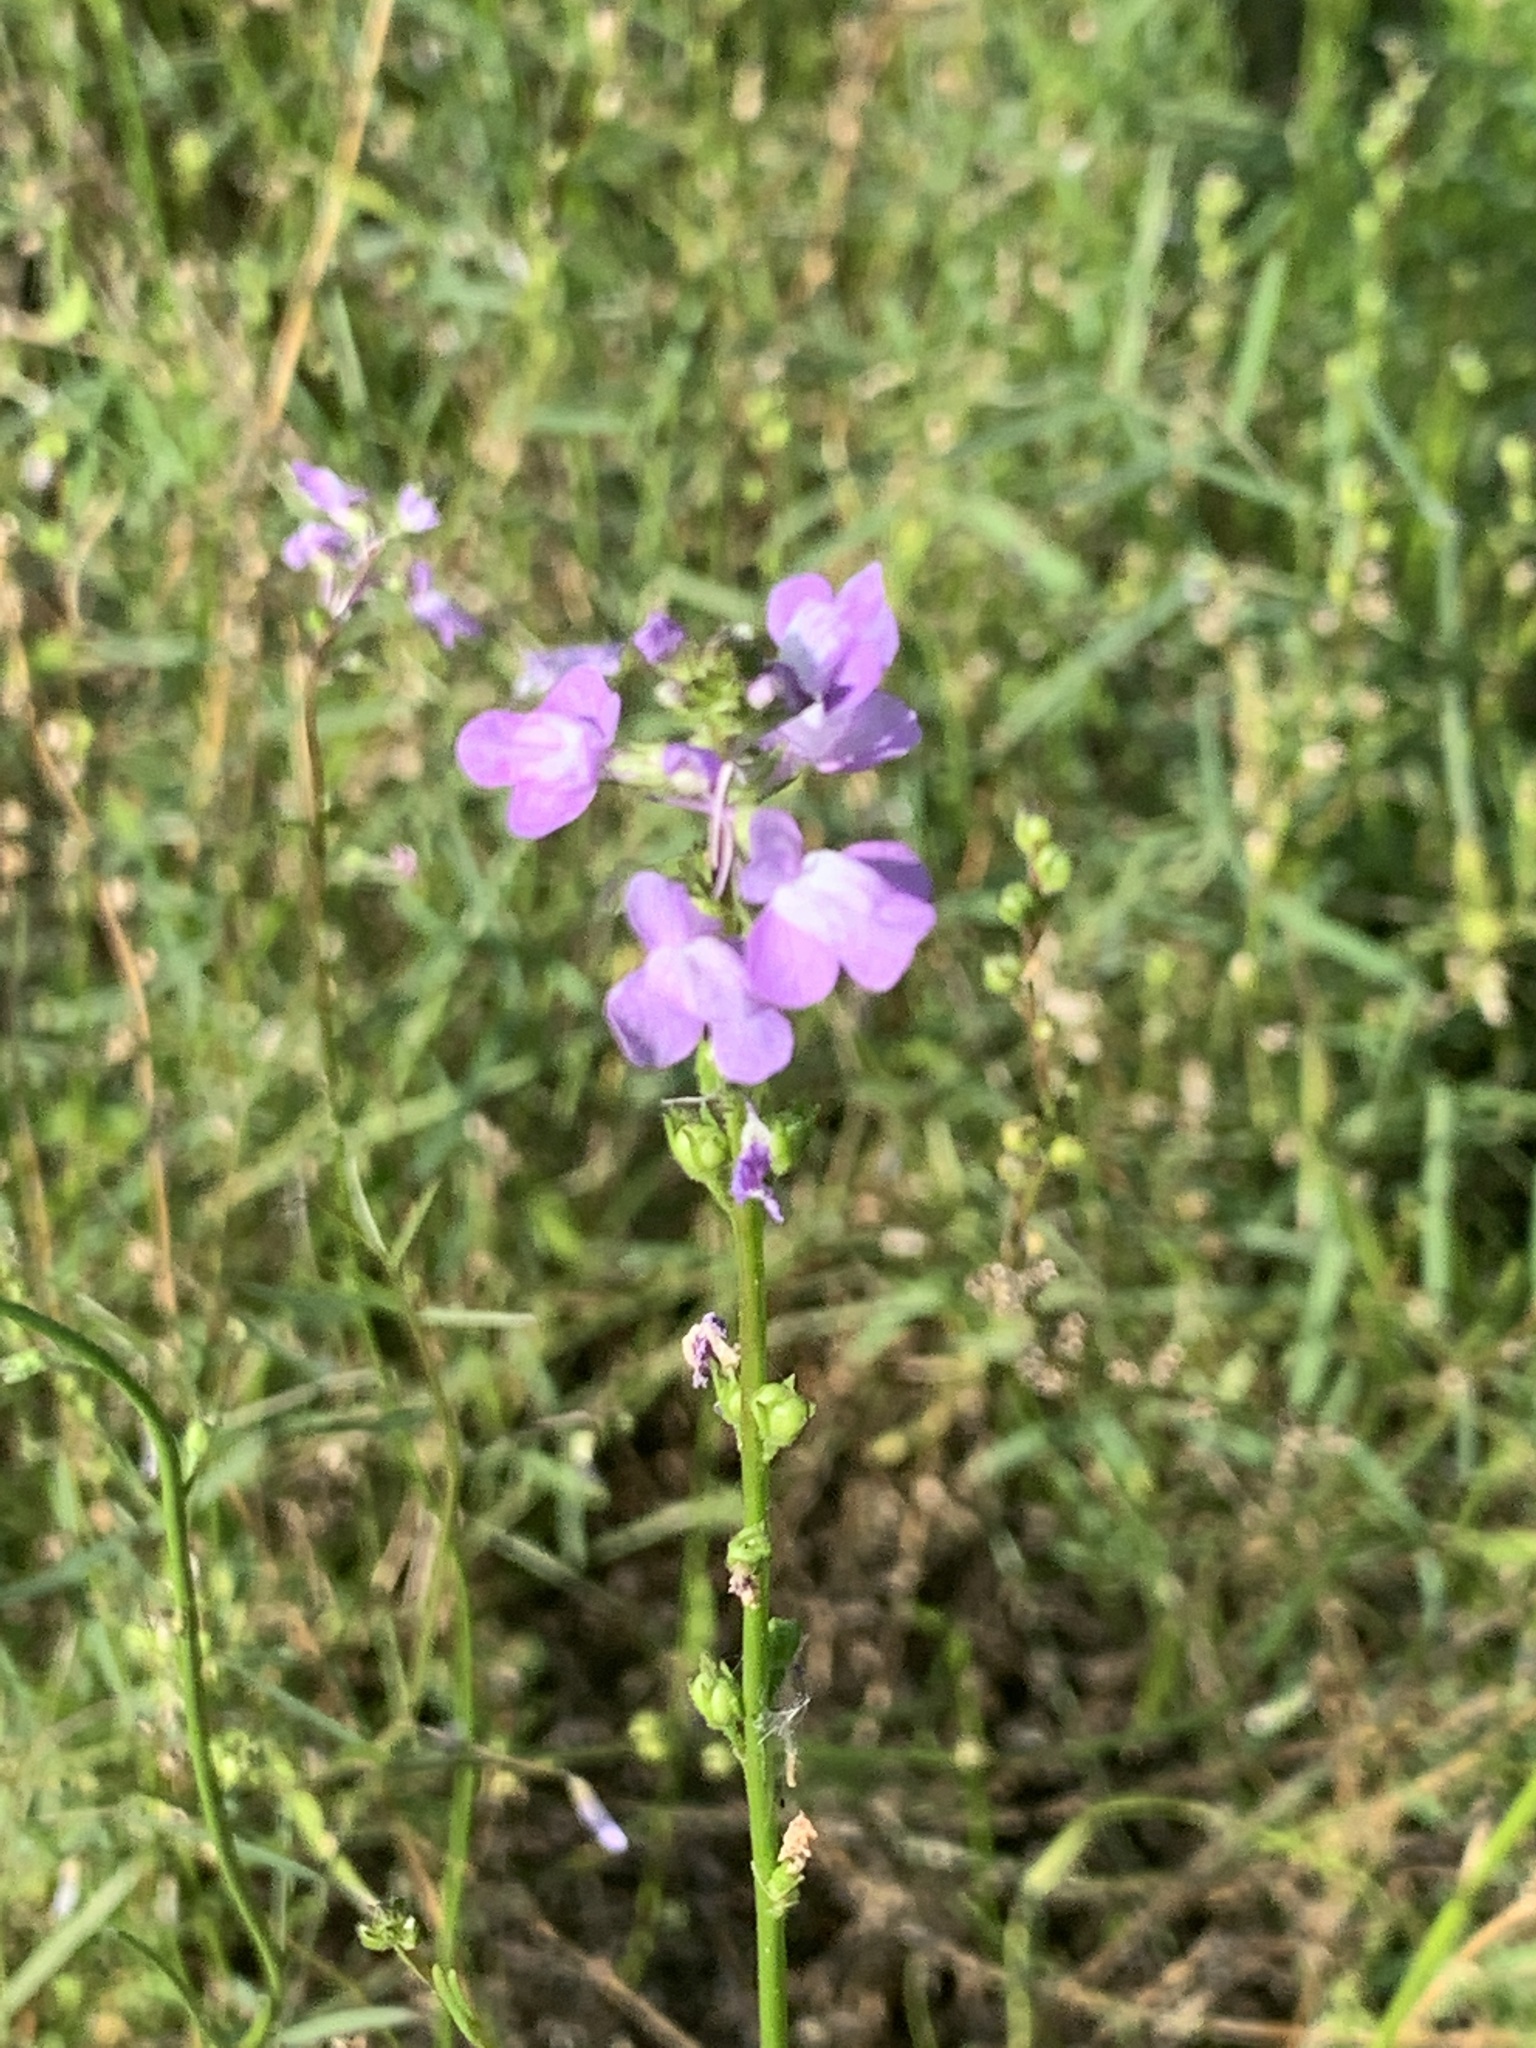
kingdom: Plantae
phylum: Tracheophyta
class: Magnoliopsida
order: Lamiales
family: Plantaginaceae
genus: Nuttallanthus
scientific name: Nuttallanthus canadensis
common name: Blue toadflax
